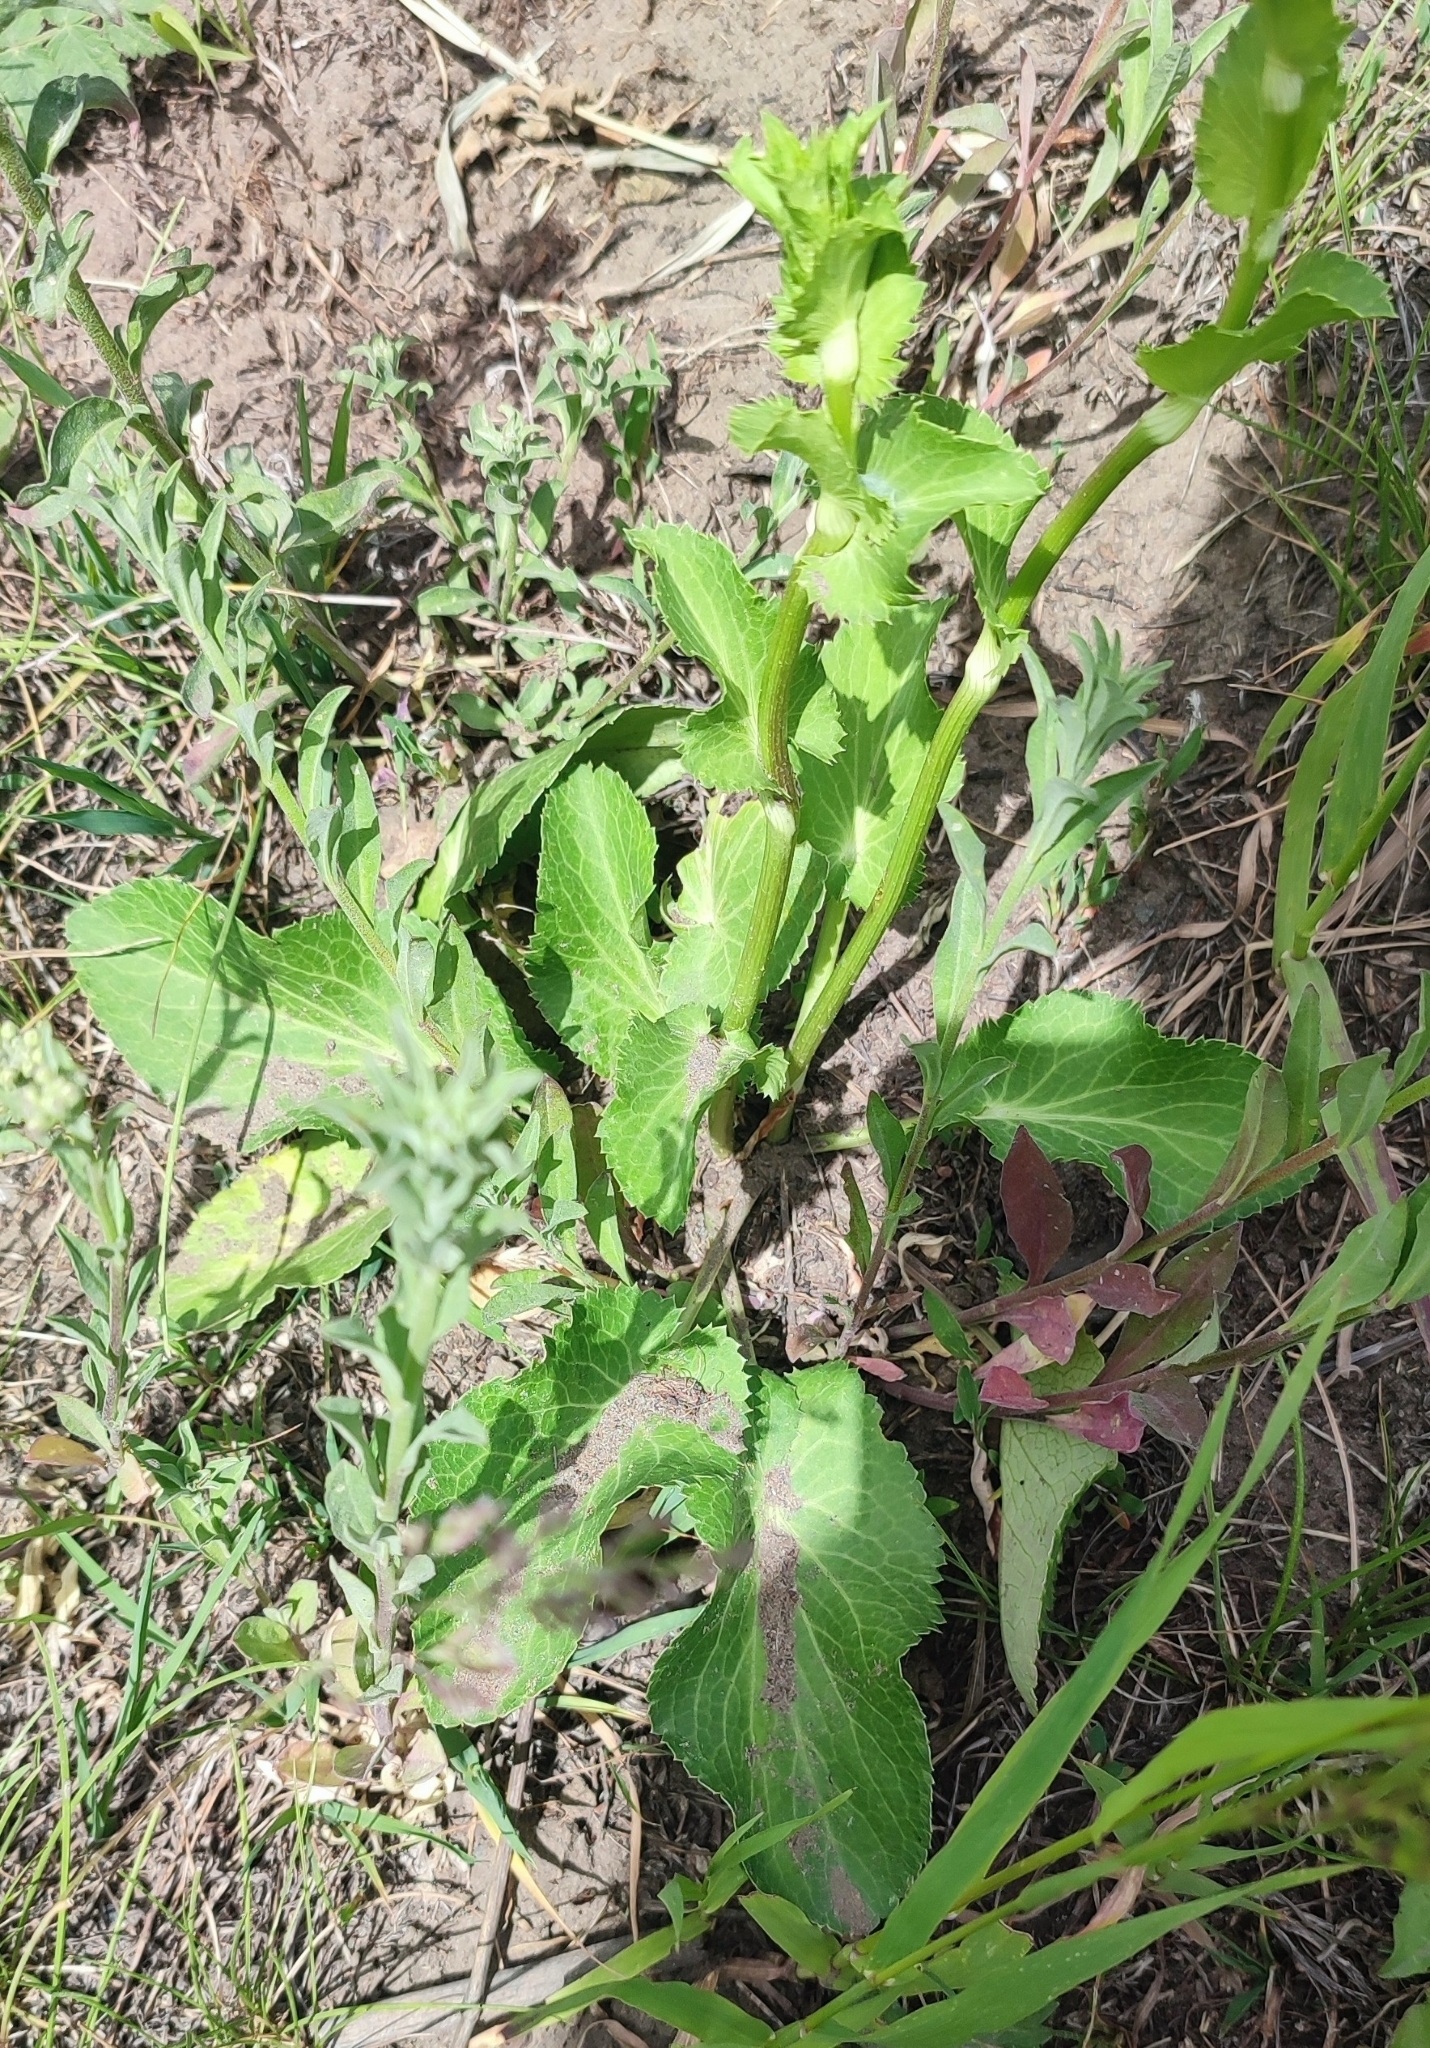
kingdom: Plantae
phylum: Tracheophyta
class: Magnoliopsida
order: Apiales
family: Apiaceae
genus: Eryngium
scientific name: Eryngium planum
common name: Blue eryngo
